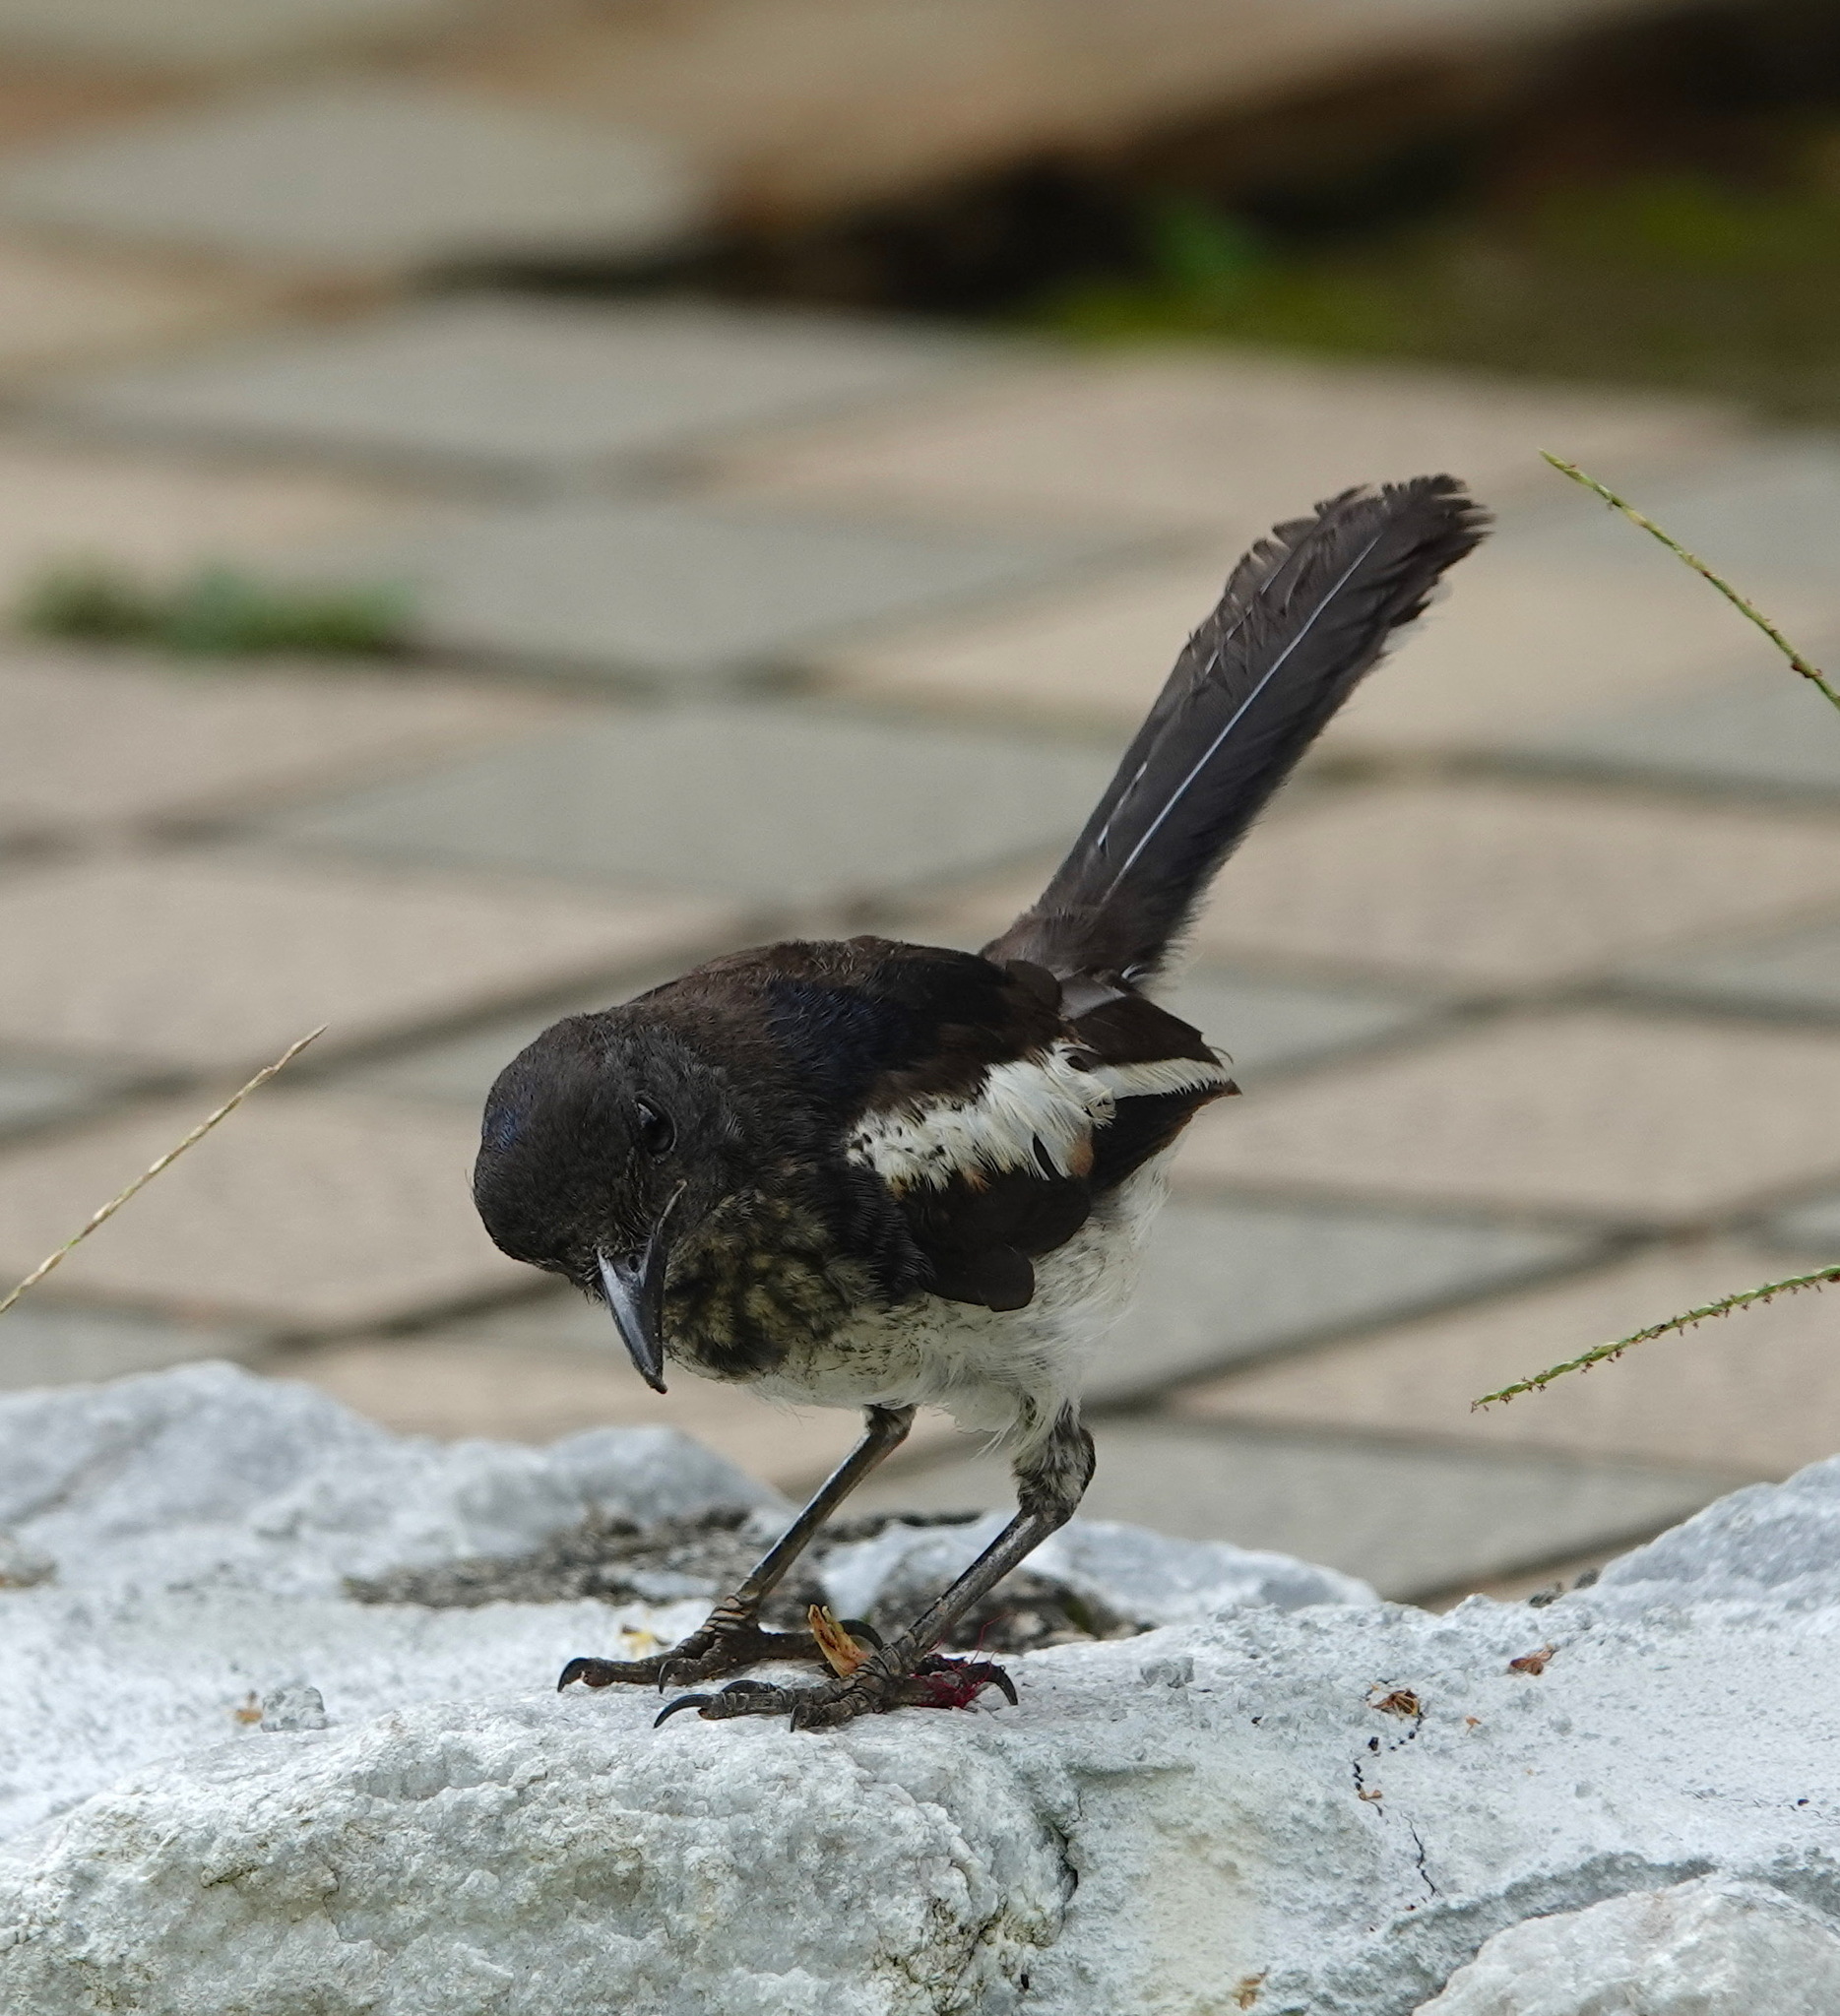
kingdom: Animalia
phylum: Chordata
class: Aves
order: Passeriformes
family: Muscicapidae
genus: Copsychus
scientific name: Copsychus saularis
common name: Oriental magpie-robin
